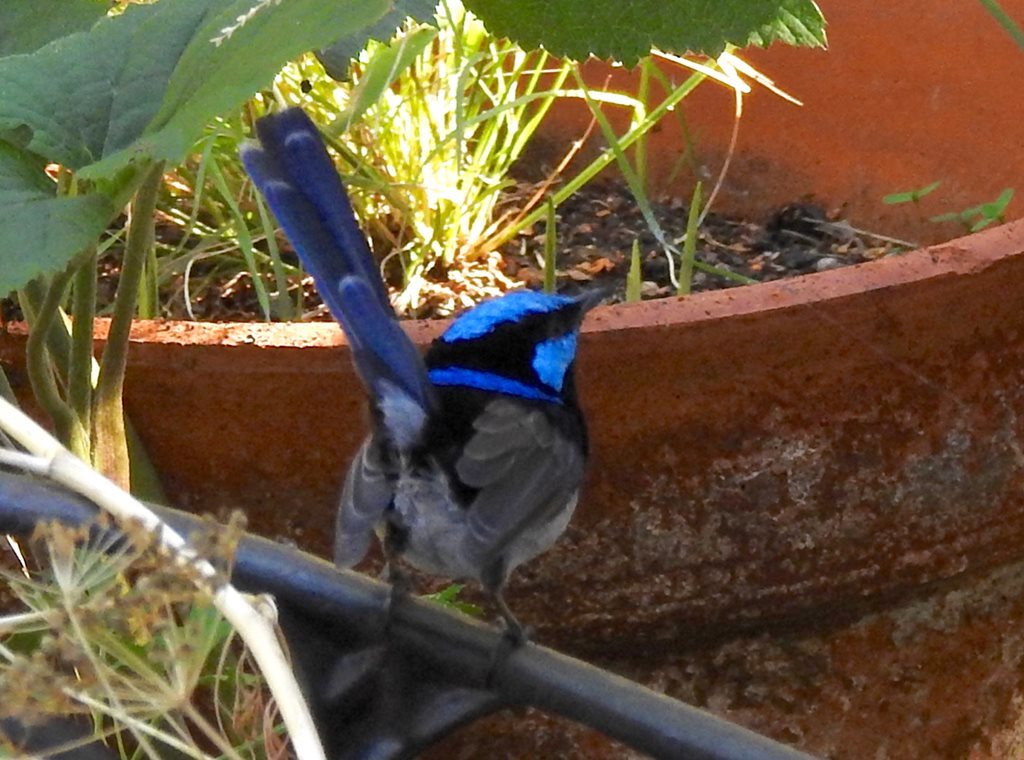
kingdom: Animalia
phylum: Chordata
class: Aves
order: Passeriformes
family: Maluridae
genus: Malurus
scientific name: Malurus cyaneus
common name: Superb fairywren
